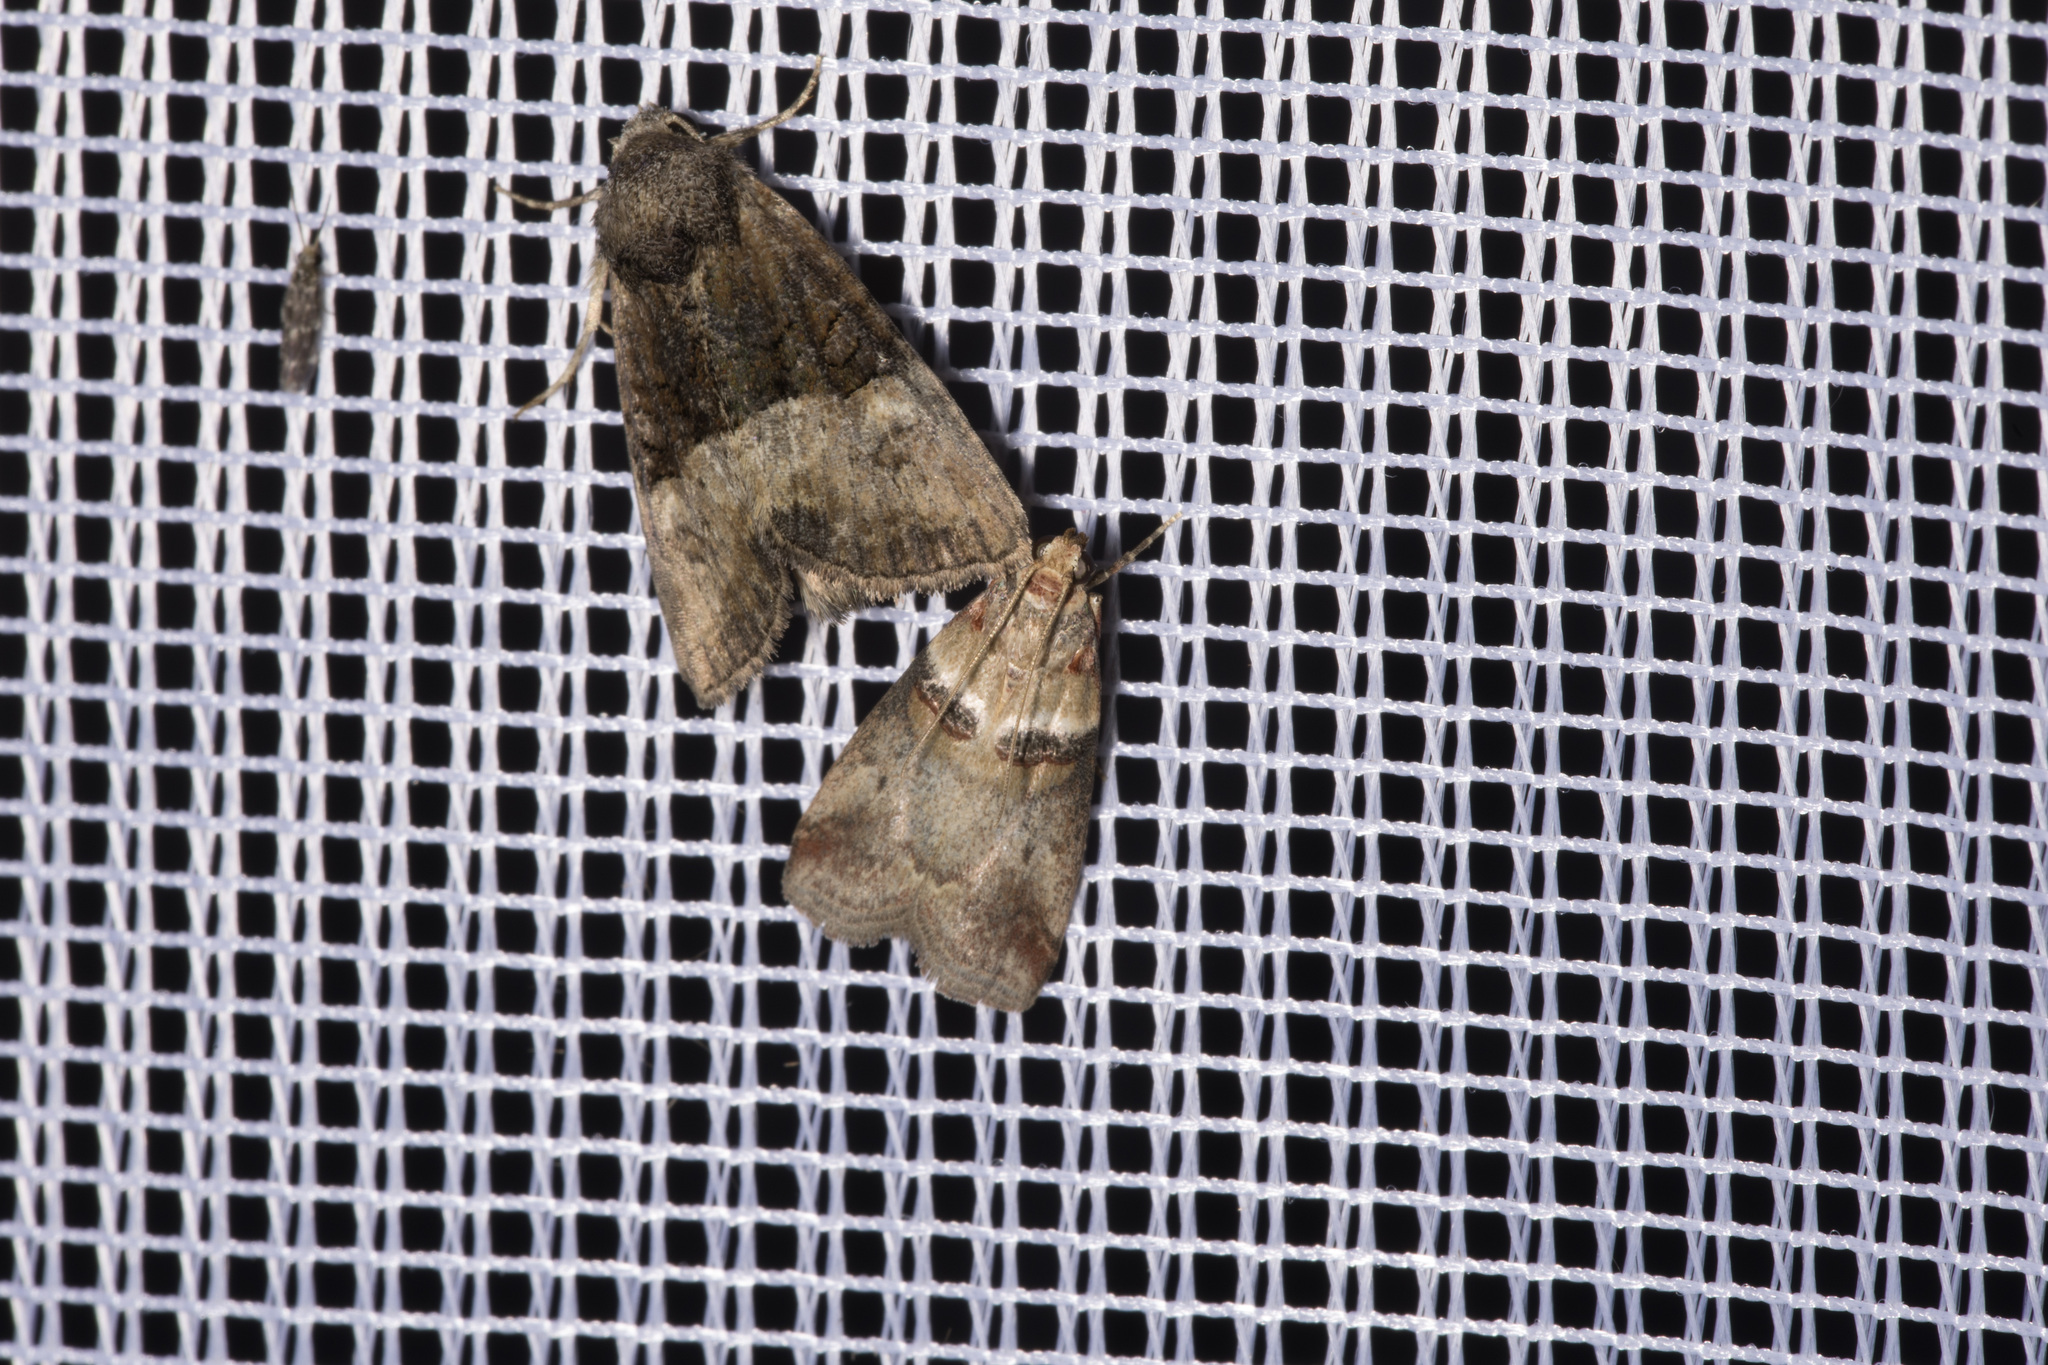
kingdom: Animalia
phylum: Arthropoda
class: Insecta
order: Lepidoptera
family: Pyralidae
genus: Acrobasis
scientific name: Acrobasis tumidana
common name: Scarce oak knot-horn
